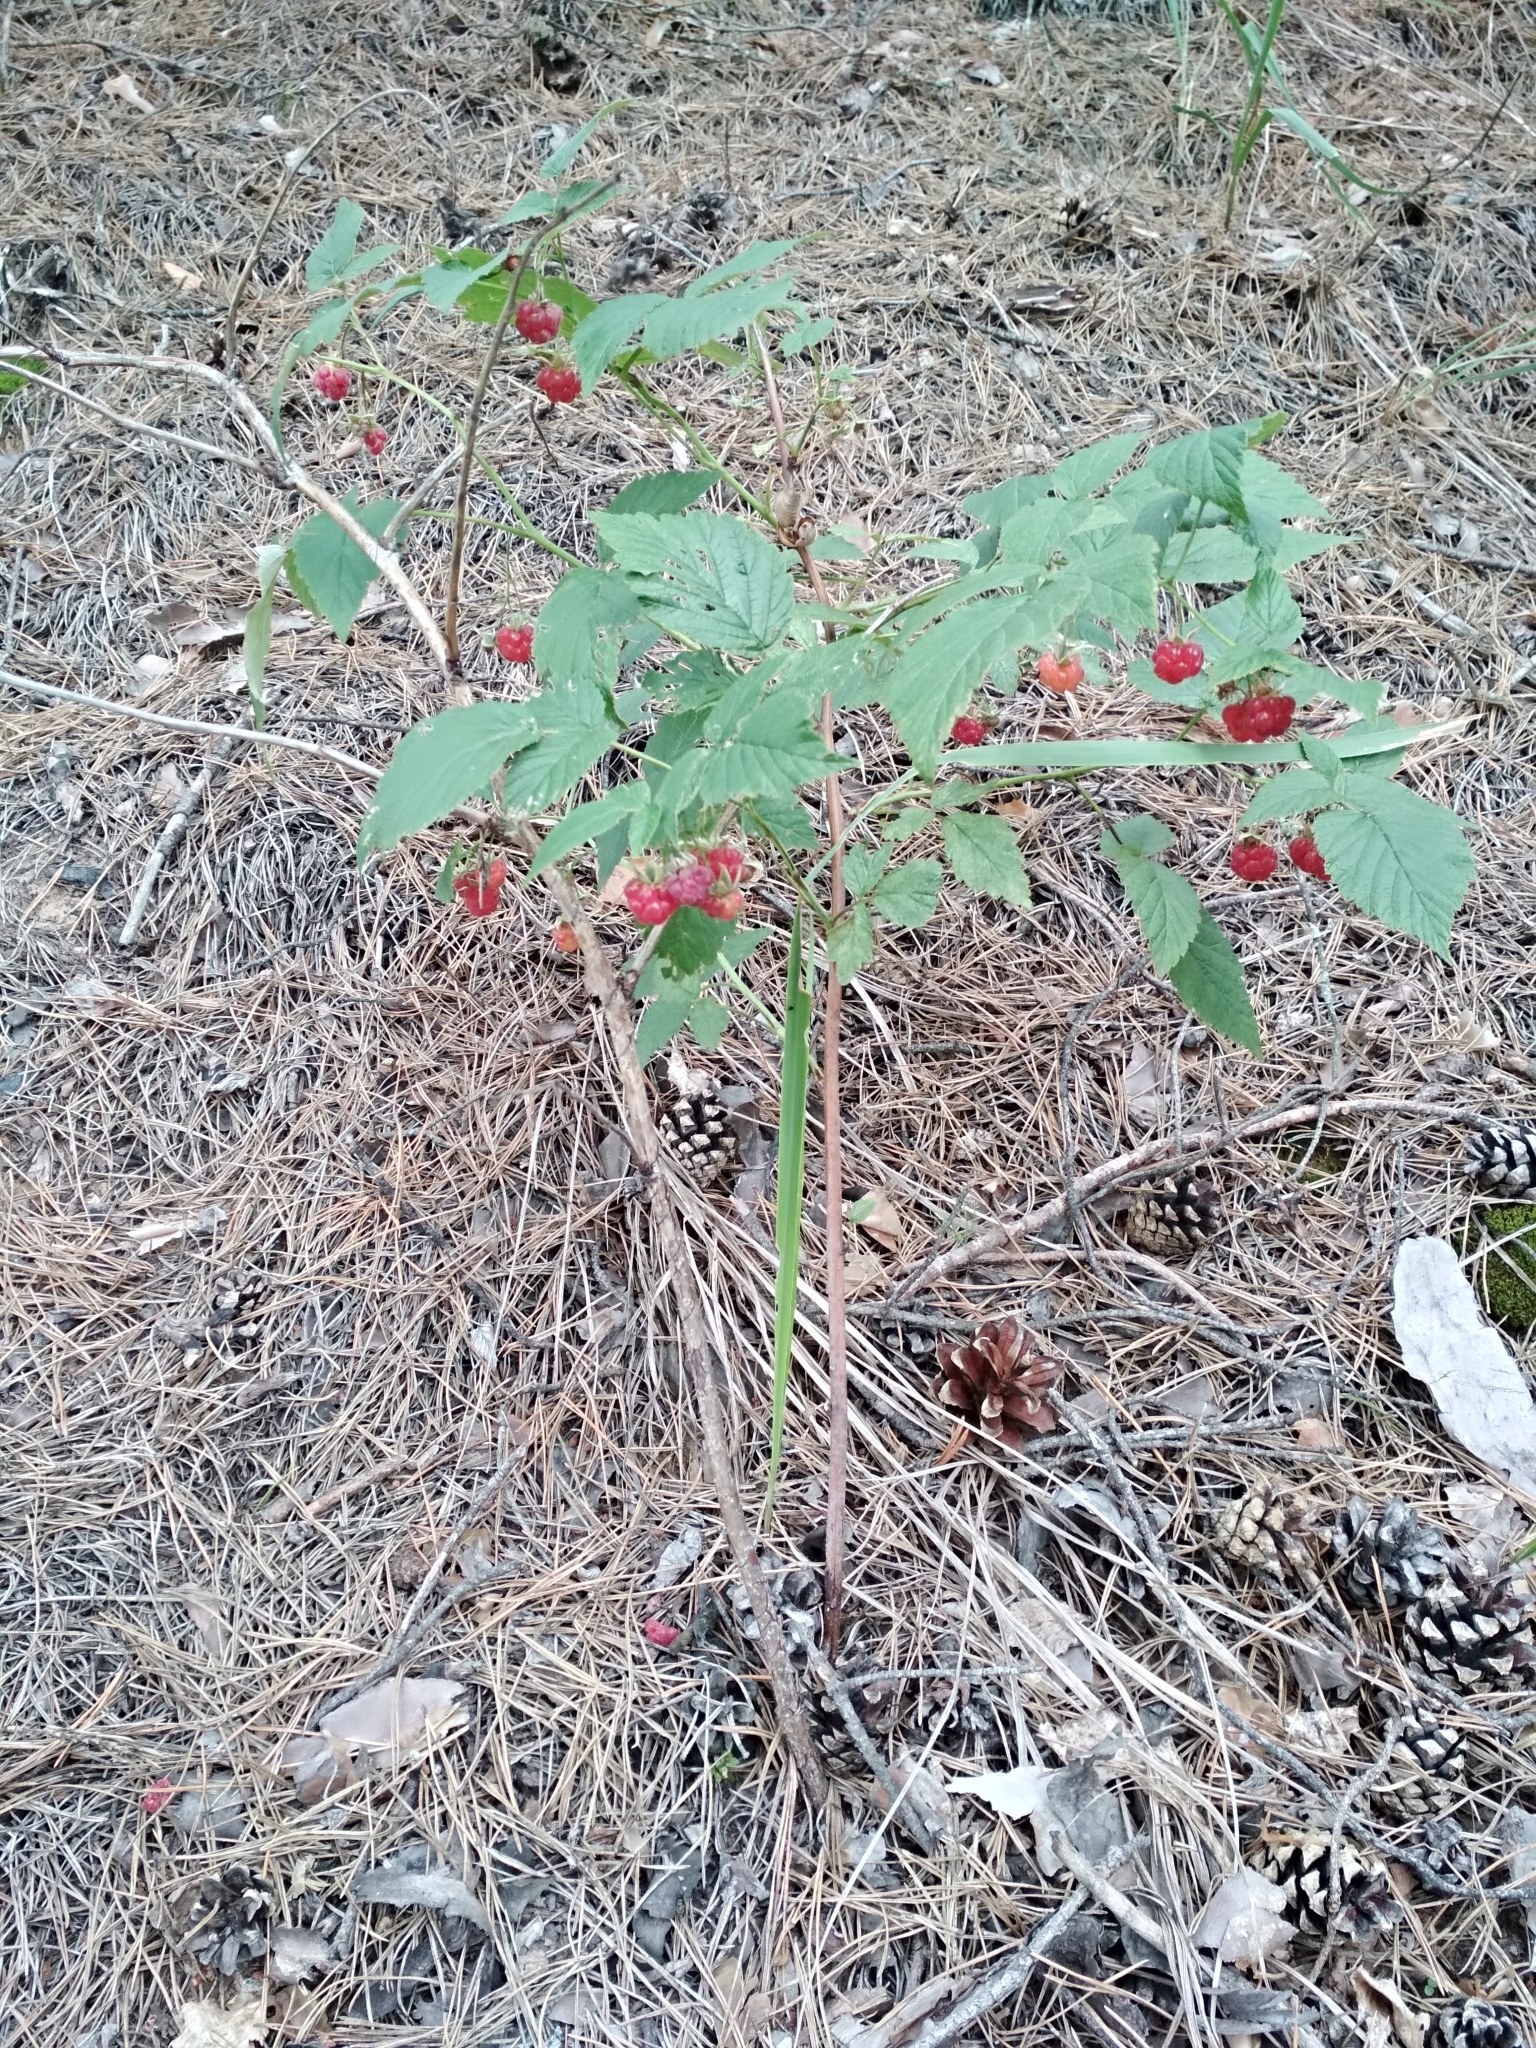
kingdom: Plantae
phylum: Tracheophyta
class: Magnoliopsida
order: Rosales
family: Rosaceae
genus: Rubus
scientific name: Rubus idaeus
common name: Raspberry
